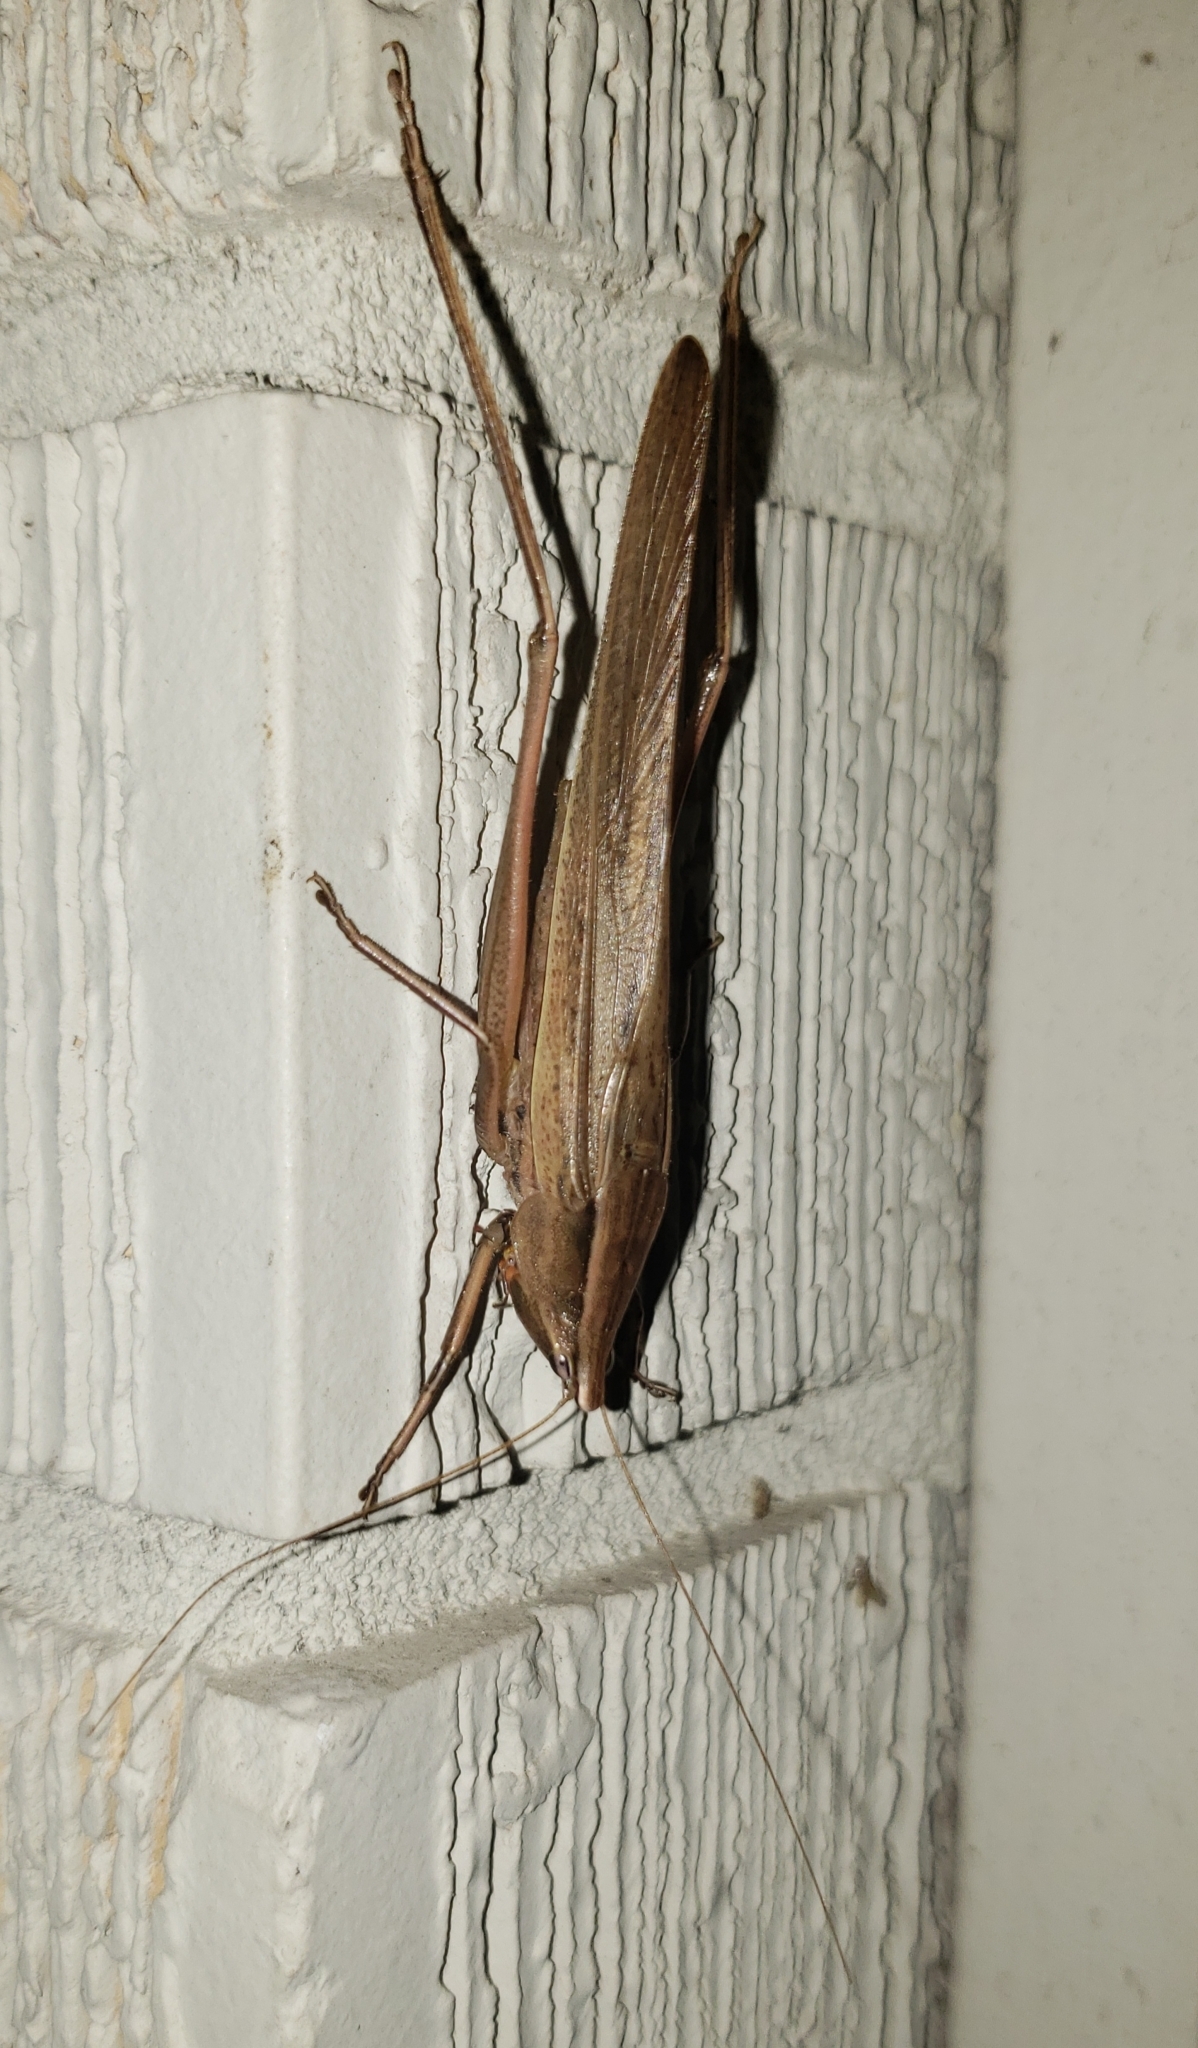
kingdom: Animalia
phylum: Arthropoda
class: Insecta
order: Orthoptera
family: Tettigoniidae
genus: Neoconocephalus
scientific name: Neoconocephalus triops
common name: Broad-tipped conehead
